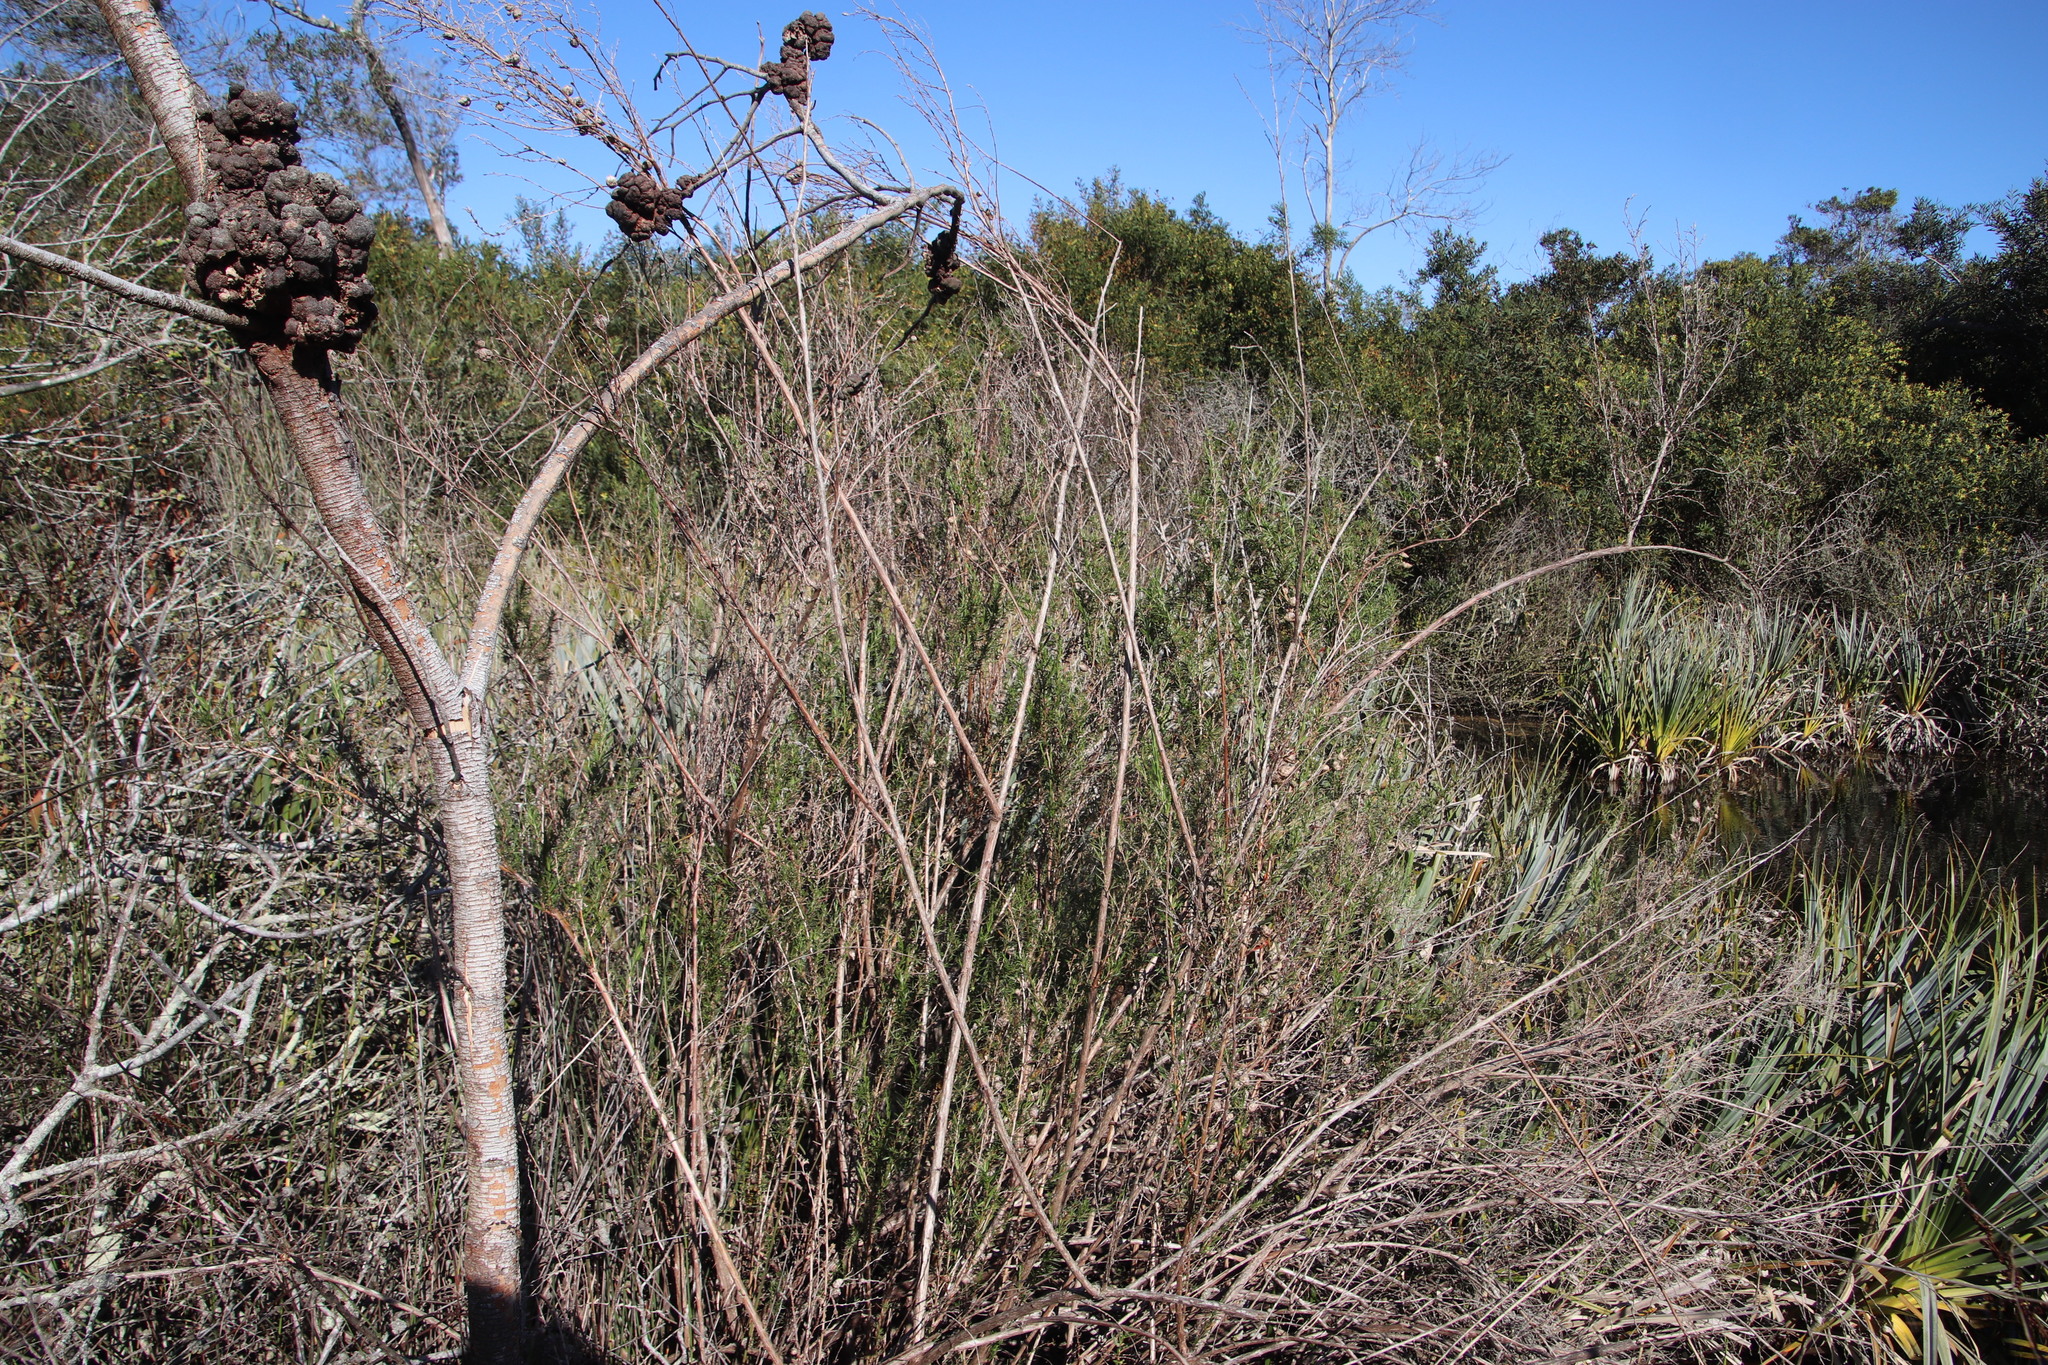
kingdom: Plantae
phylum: Tracheophyta
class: Magnoliopsida
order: Rosales
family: Rosaceae
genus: Cliffortia
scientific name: Cliffortia strobilifera
